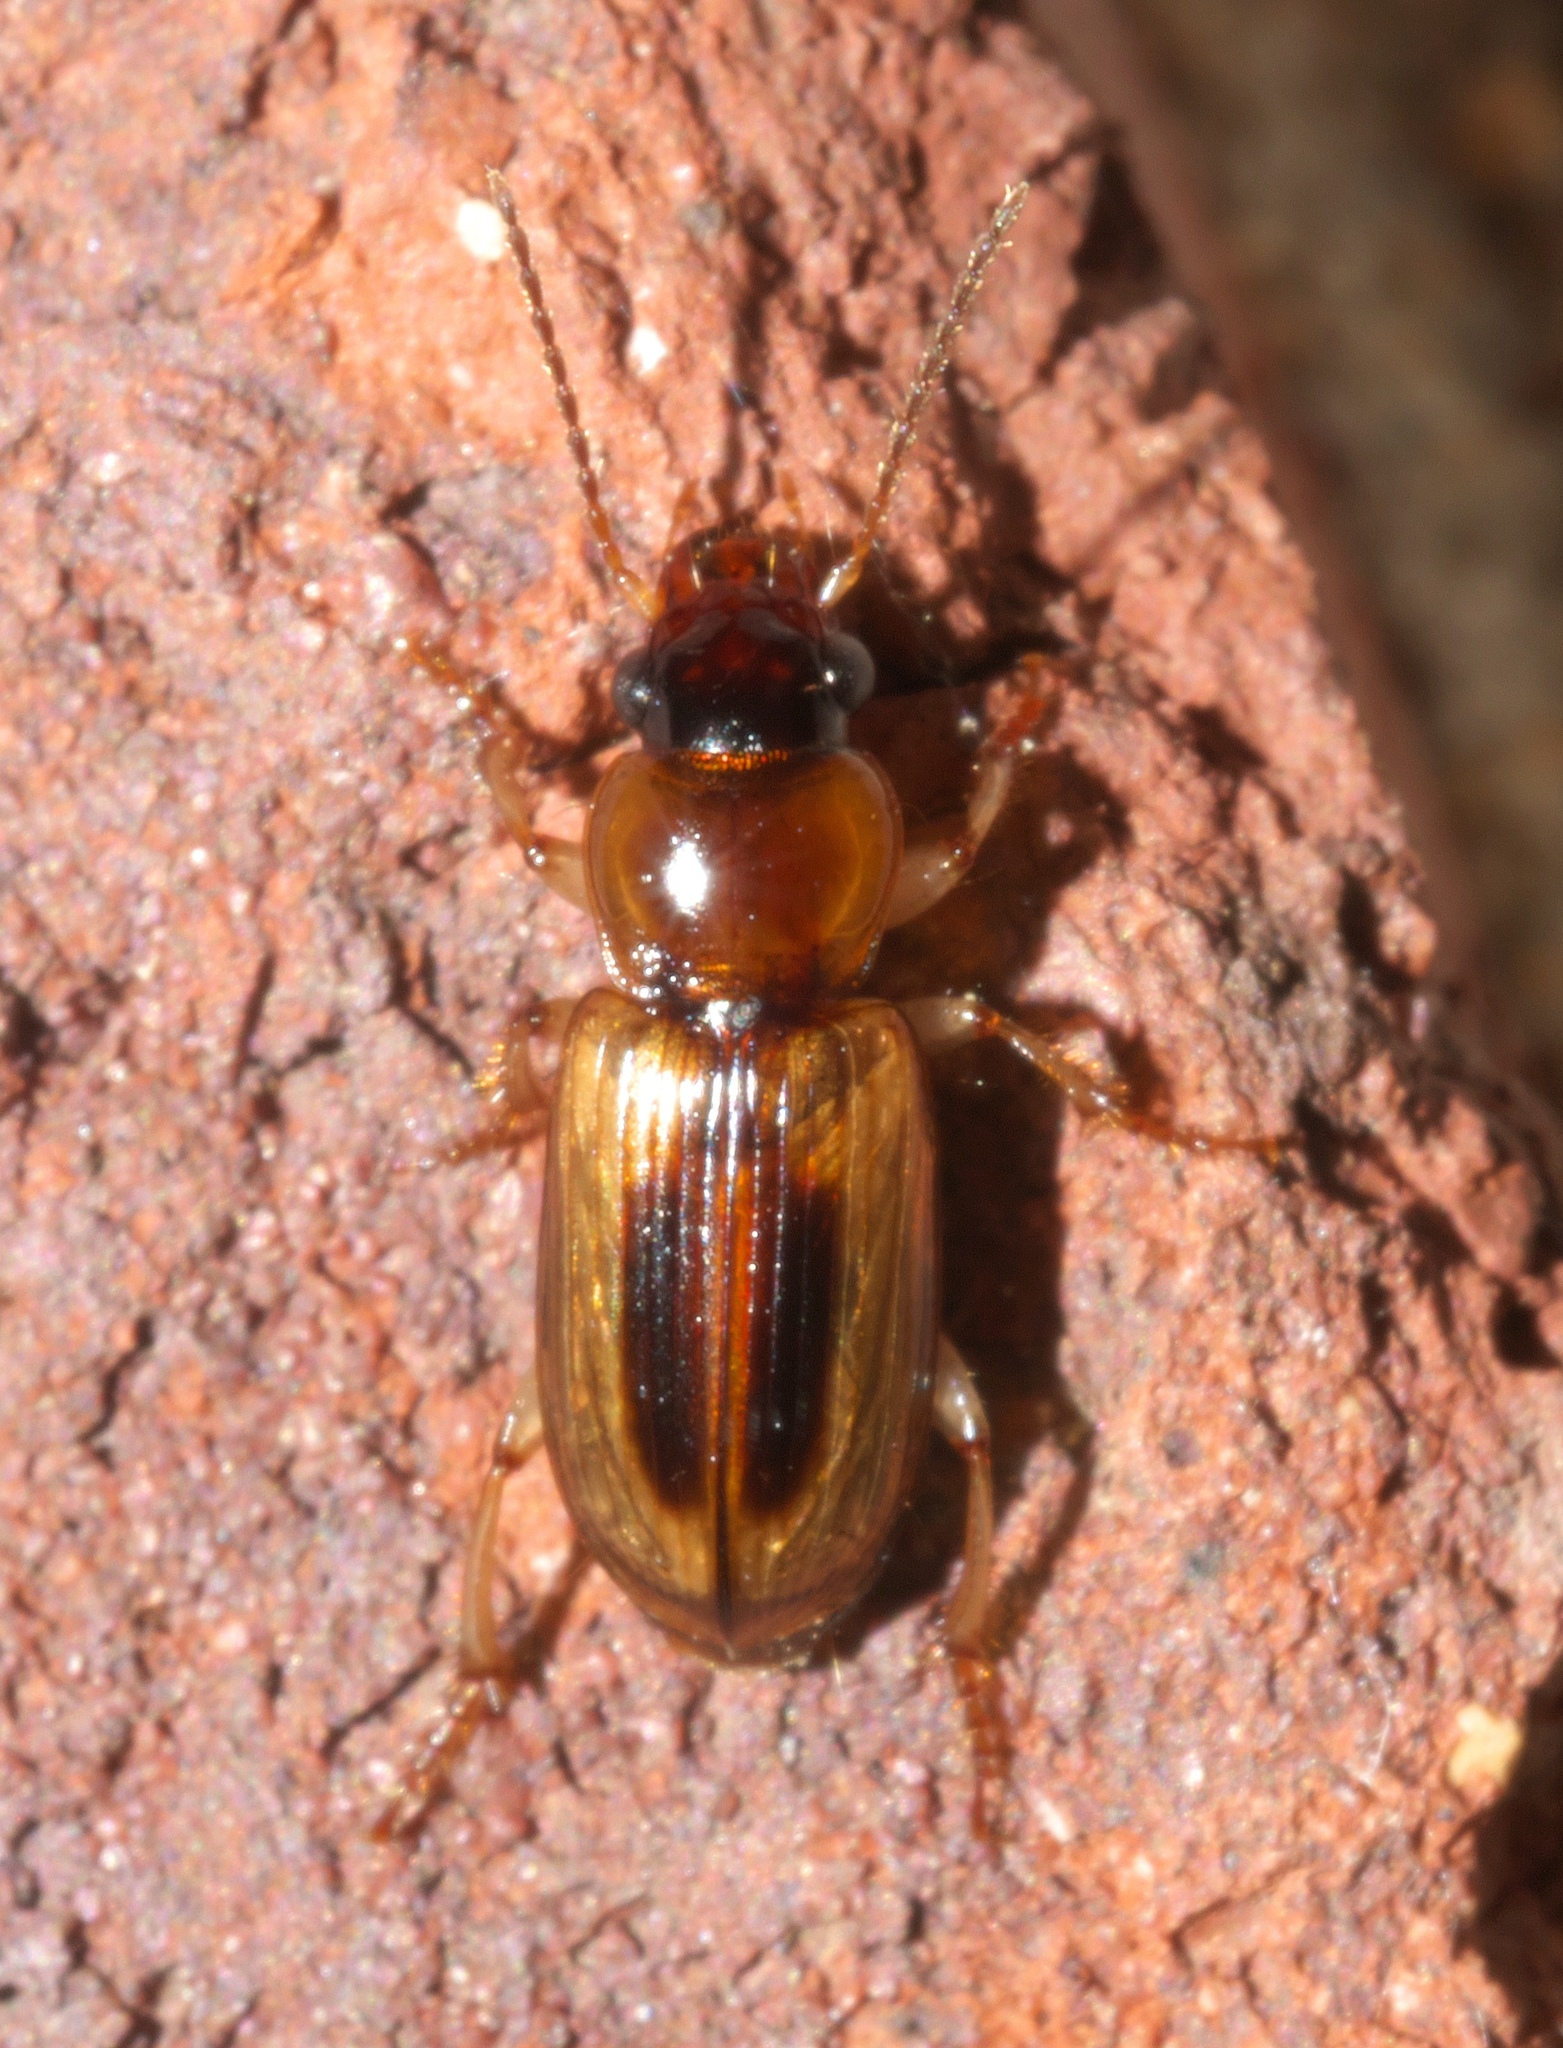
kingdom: Animalia
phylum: Arthropoda
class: Insecta
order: Coleoptera
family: Carabidae
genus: Stenolophus
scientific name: Stenolophus lecontei
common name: Leconte's seedcorn beetle
